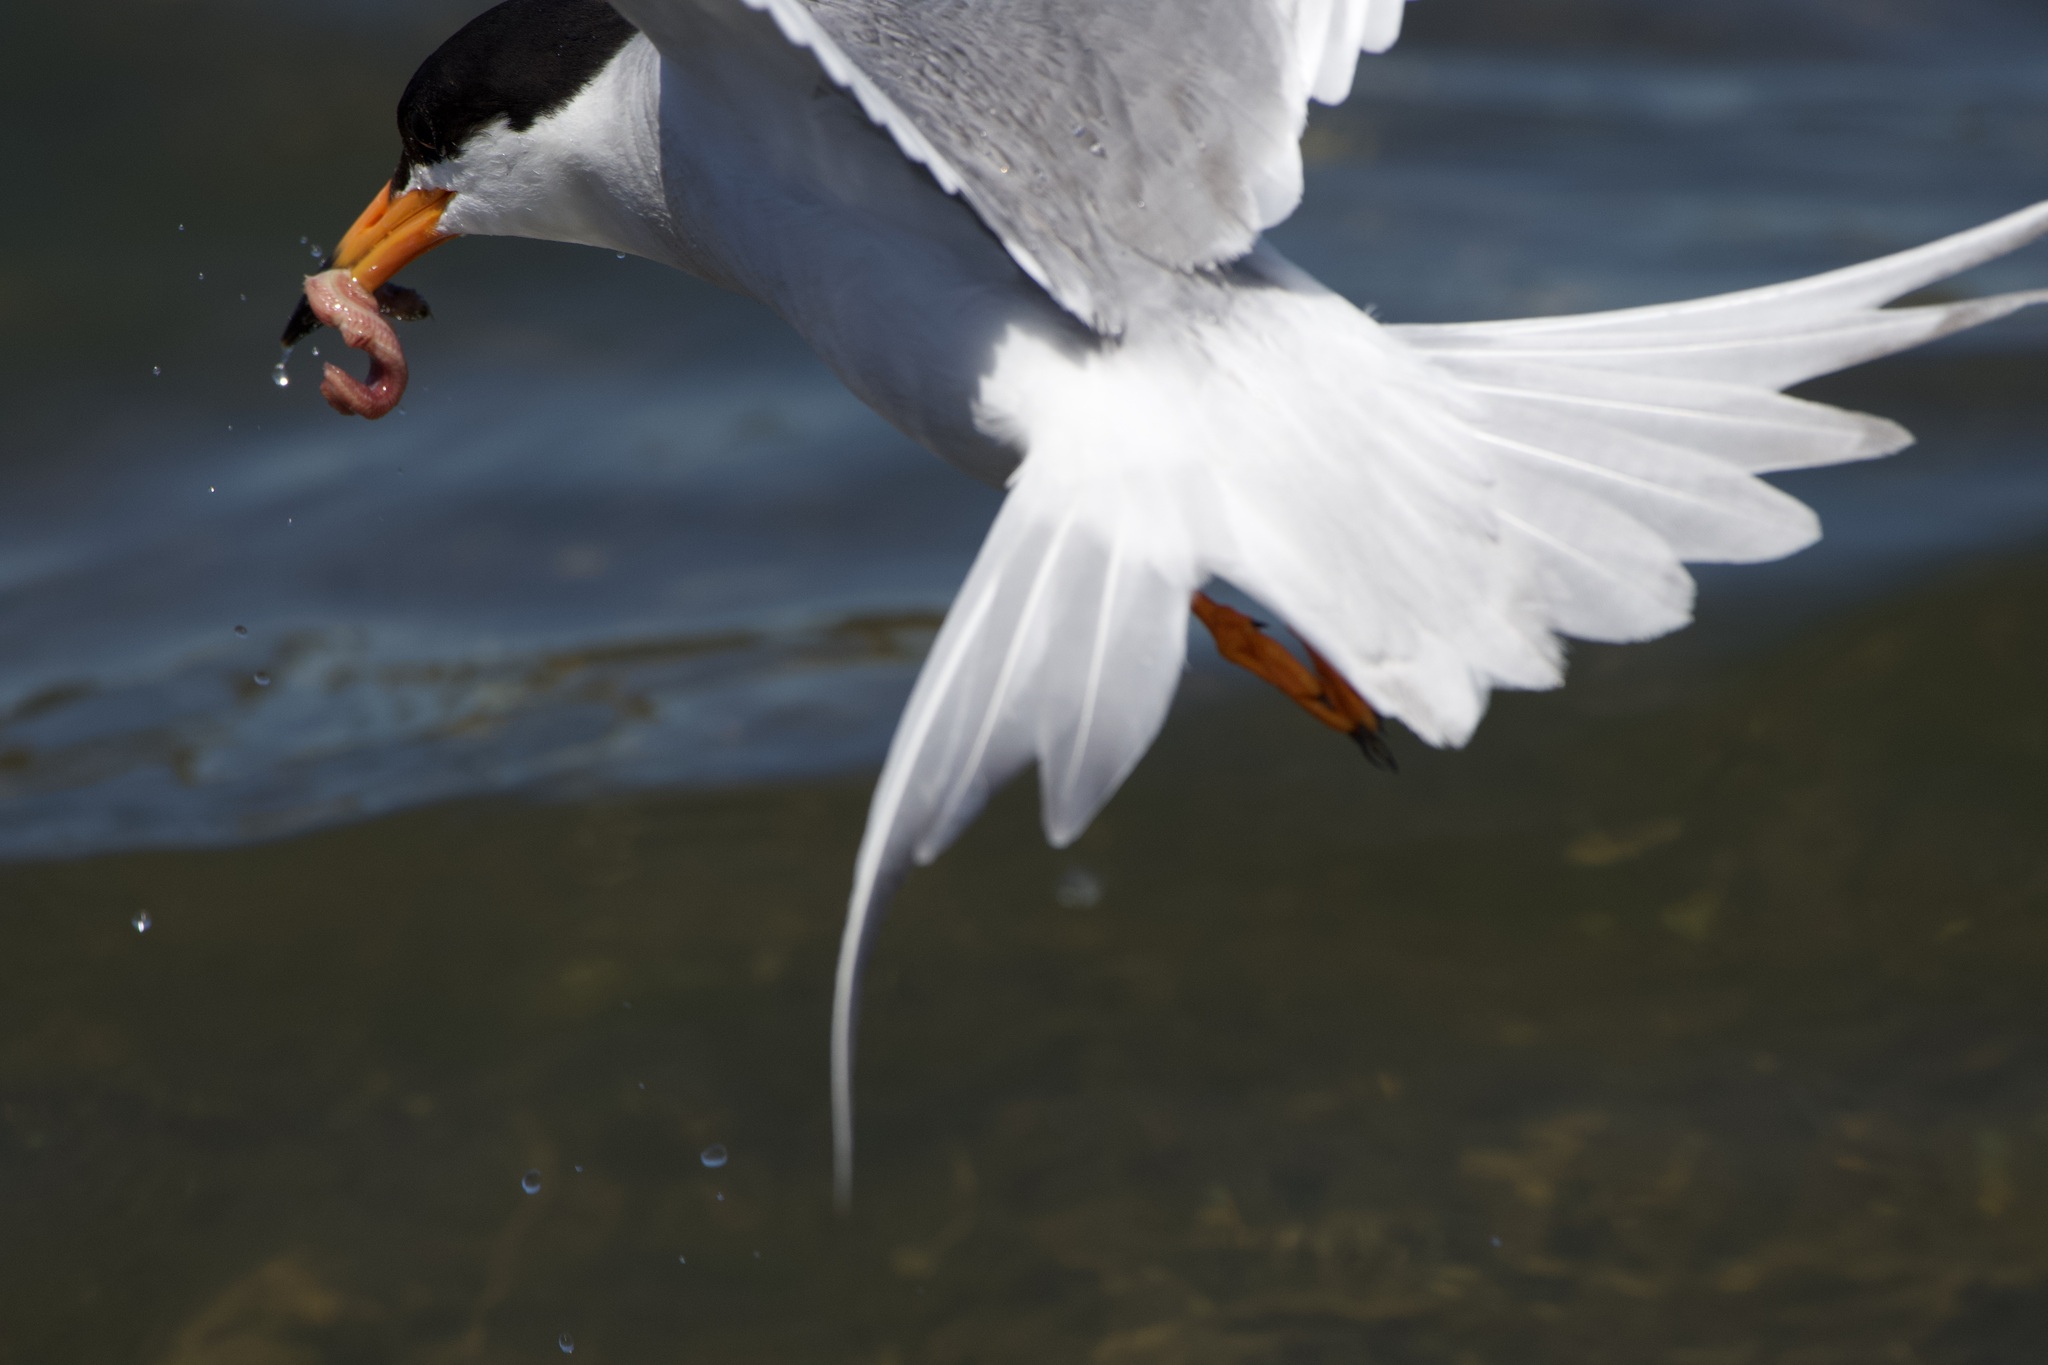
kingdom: Animalia
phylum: Chordata
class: Aves
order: Charadriiformes
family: Laridae
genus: Sterna
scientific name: Sterna forsteri
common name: Forster's tern
